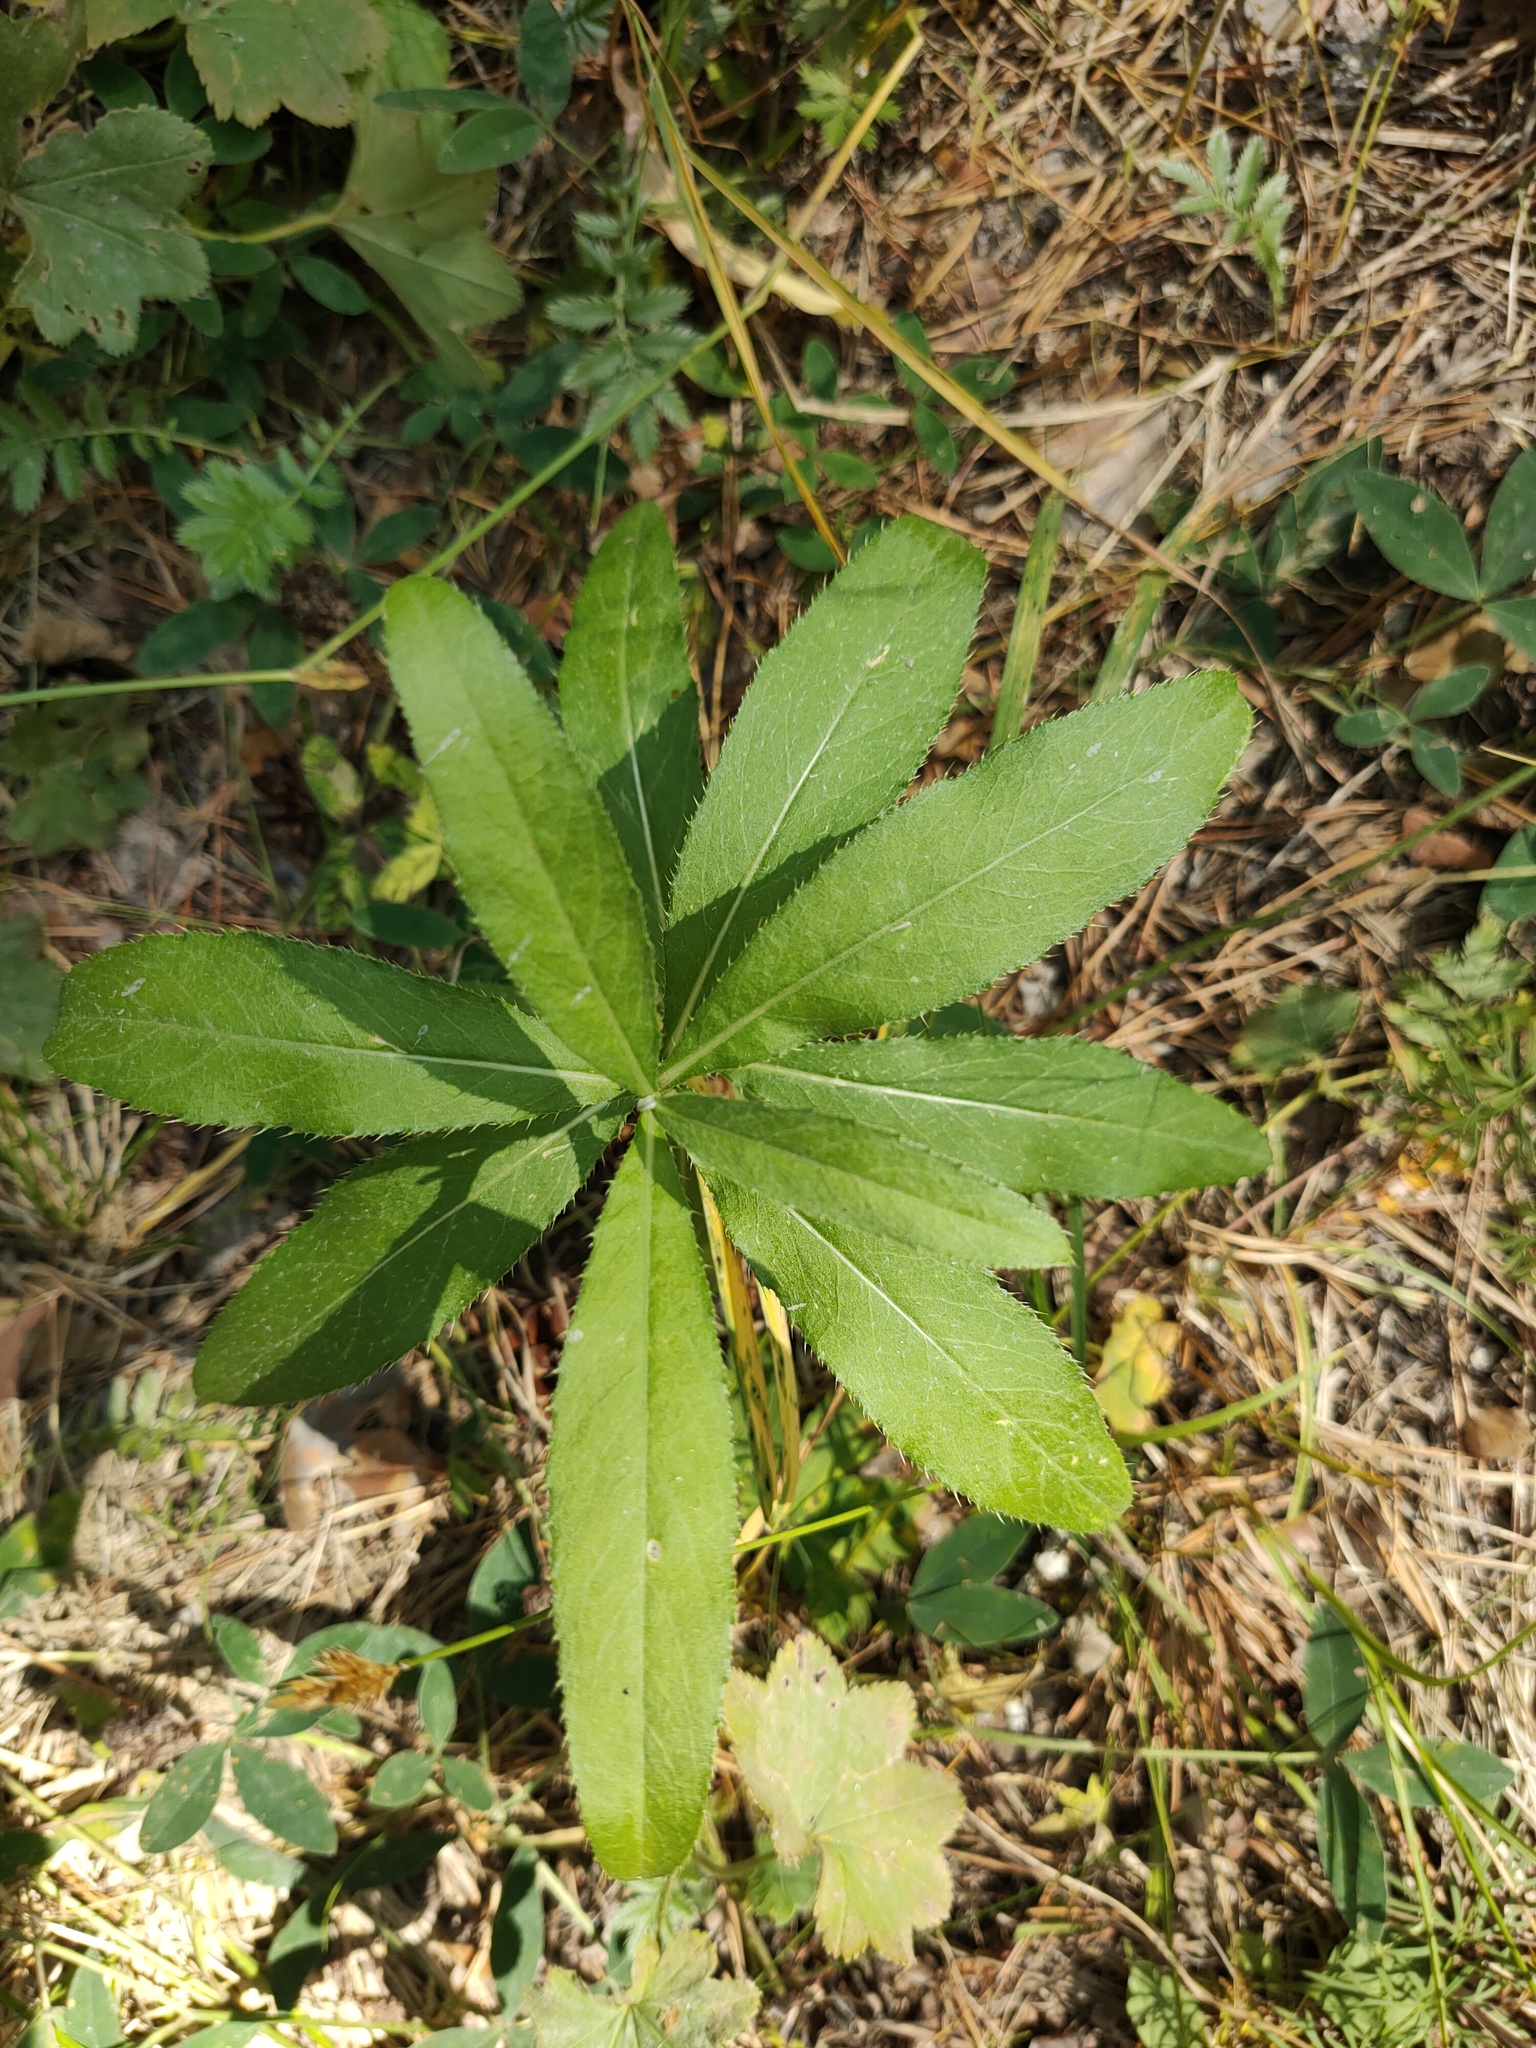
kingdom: Plantae
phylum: Tracheophyta
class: Magnoliopsida
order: Asterales
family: Asteraceae
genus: Cirsium
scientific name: Cirsium arvense
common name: Creeping thistle
